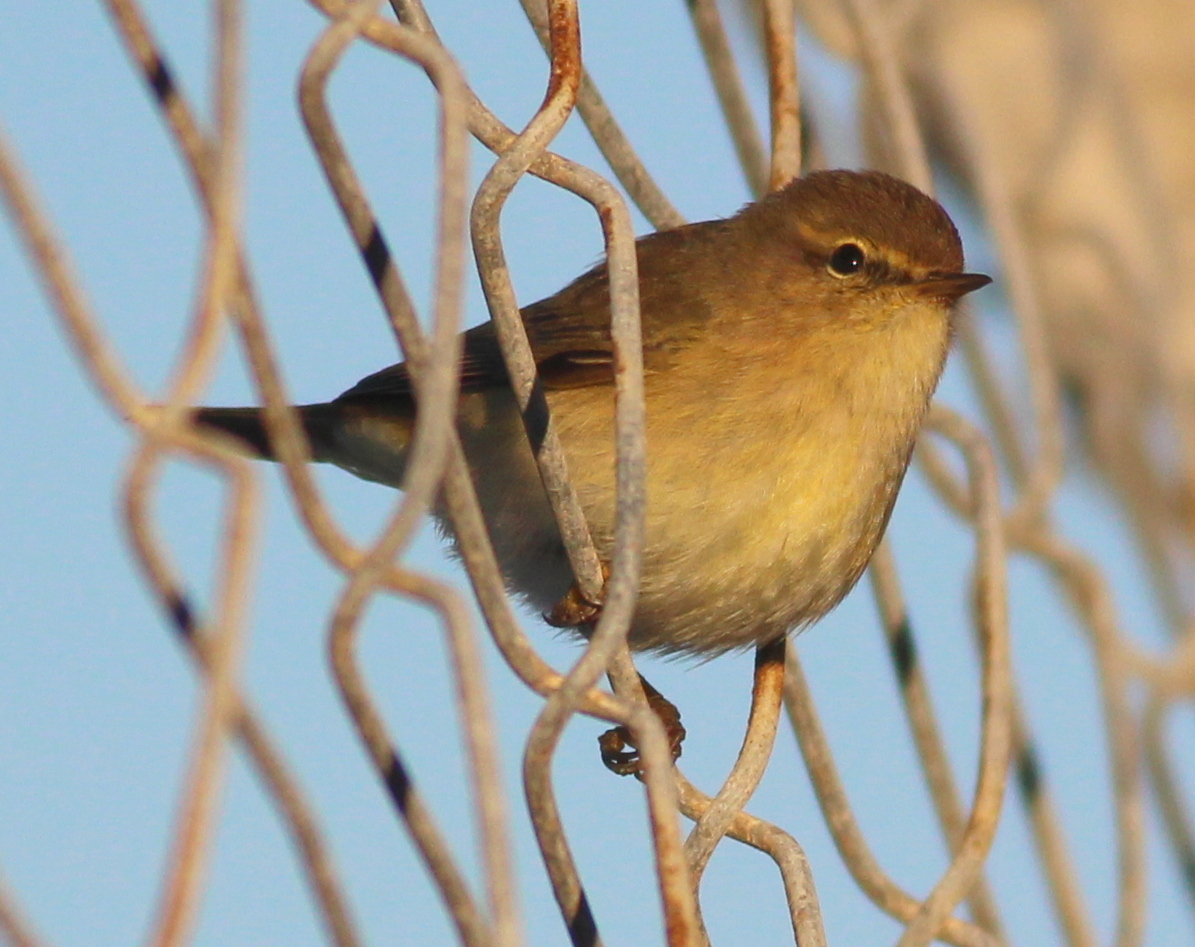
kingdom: Animalia
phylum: Chordata
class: Aves
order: Passeriformes
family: Phylloscopidae
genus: Phylloscopus
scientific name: Phylloscopus collybita
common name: Common chiffchaff
